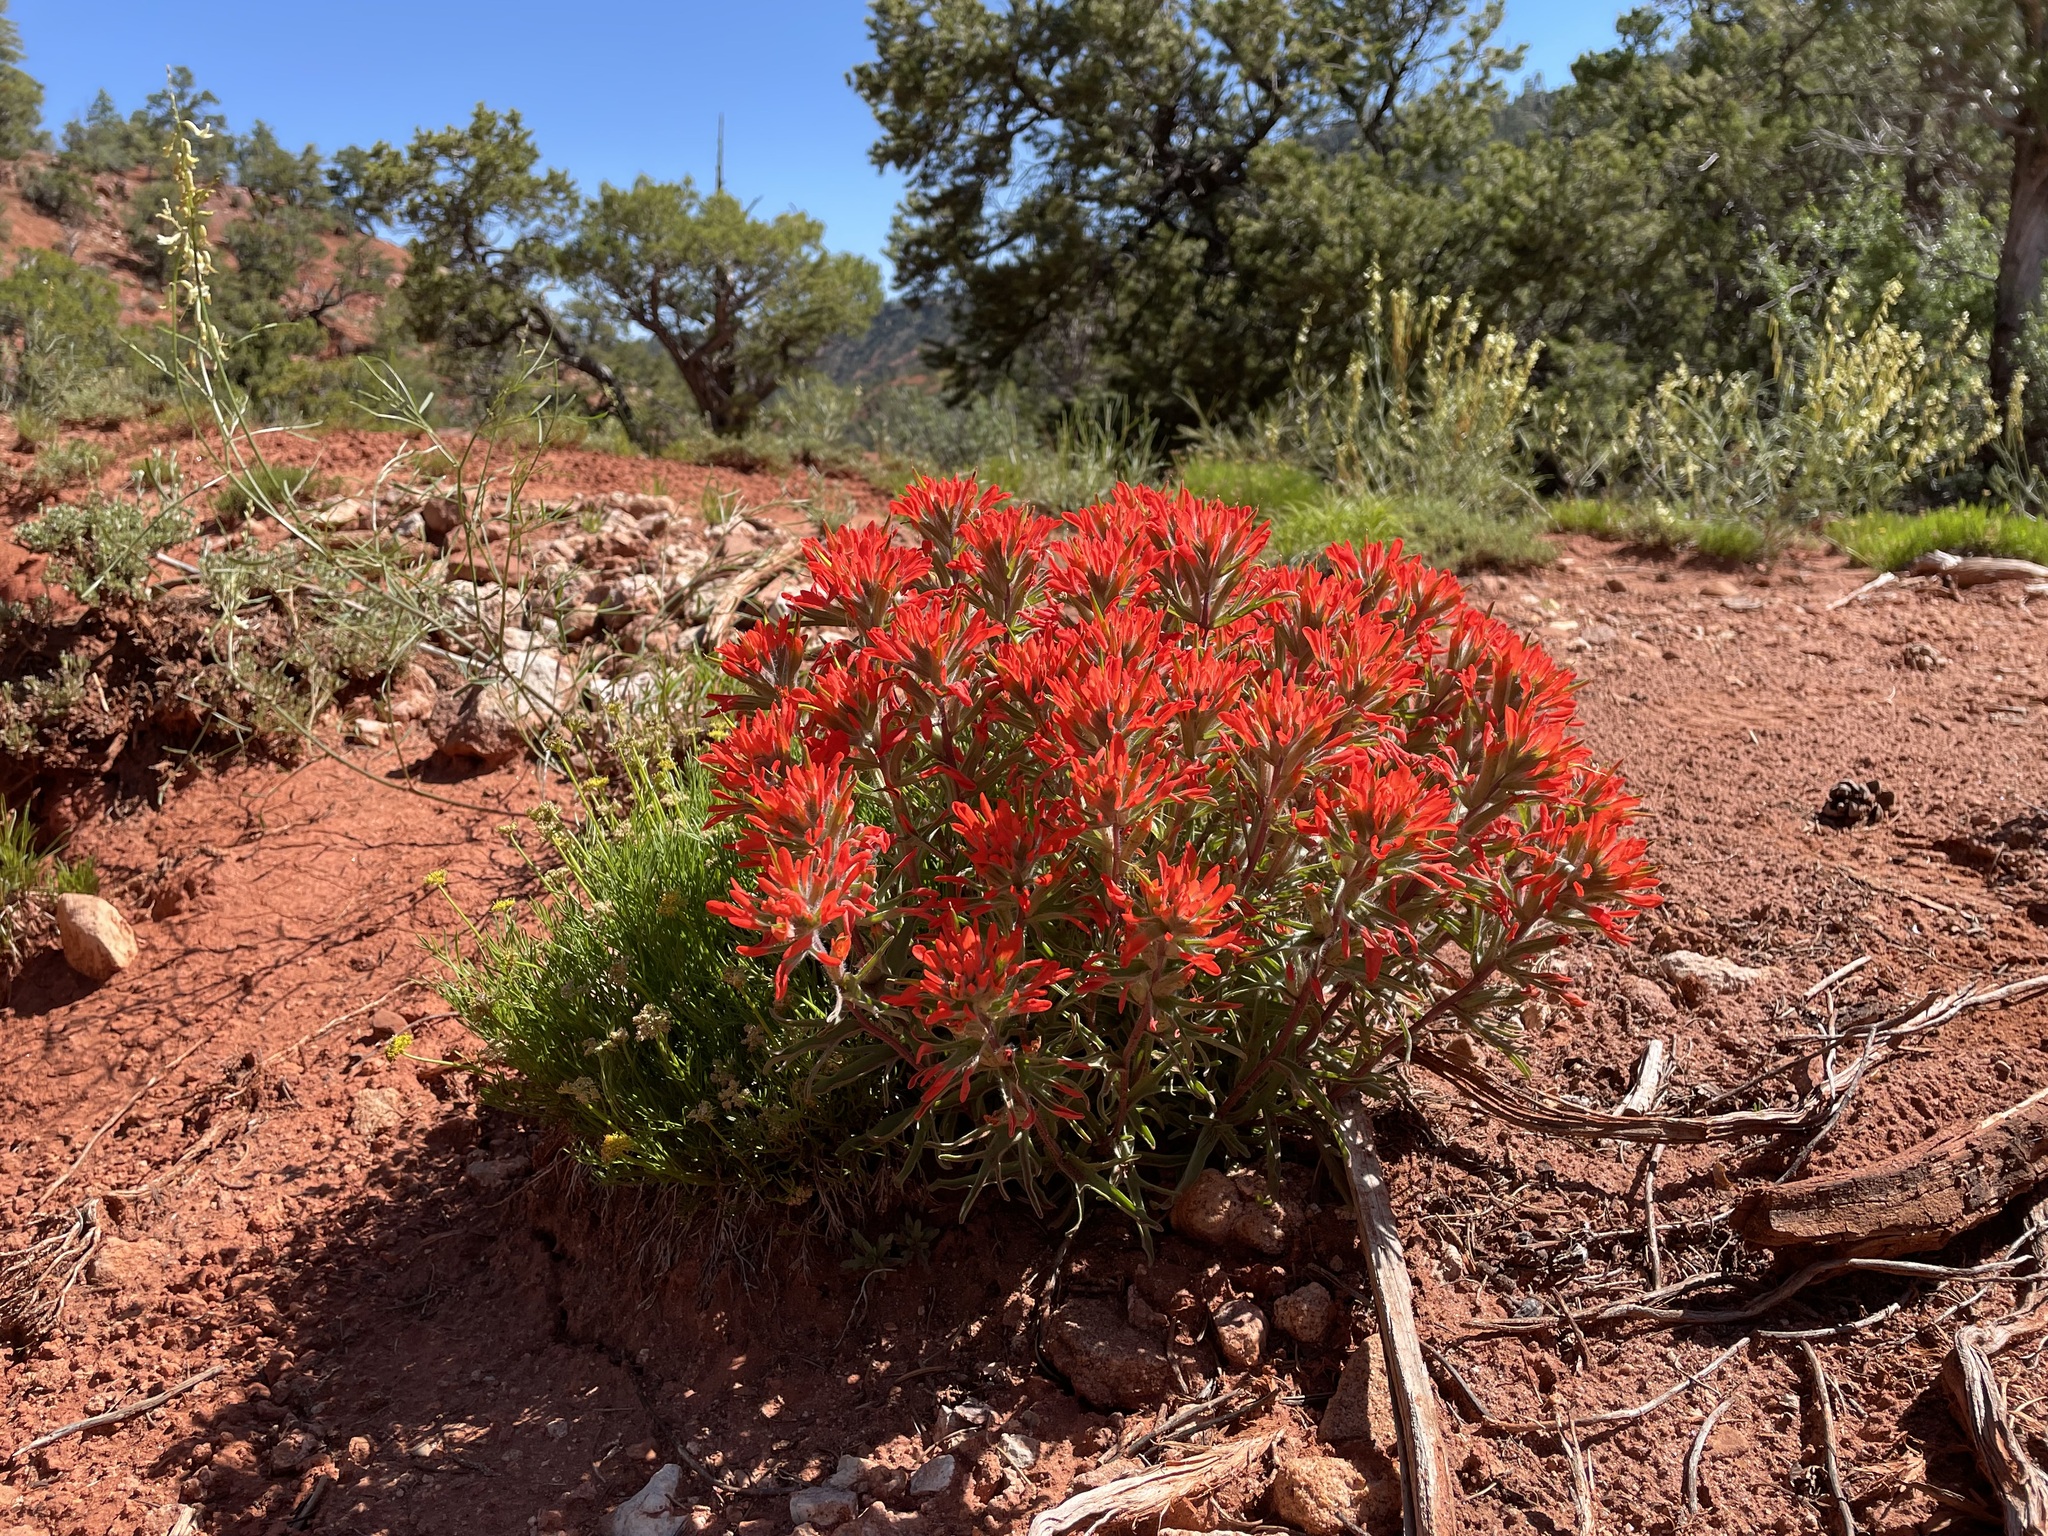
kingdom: Plantae
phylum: Tracheophyta
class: Magnoliopsida
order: Lamiales
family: Orobanchaceae
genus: Castilleja
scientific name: Castilleja chromosa
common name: Desert paintbrush
